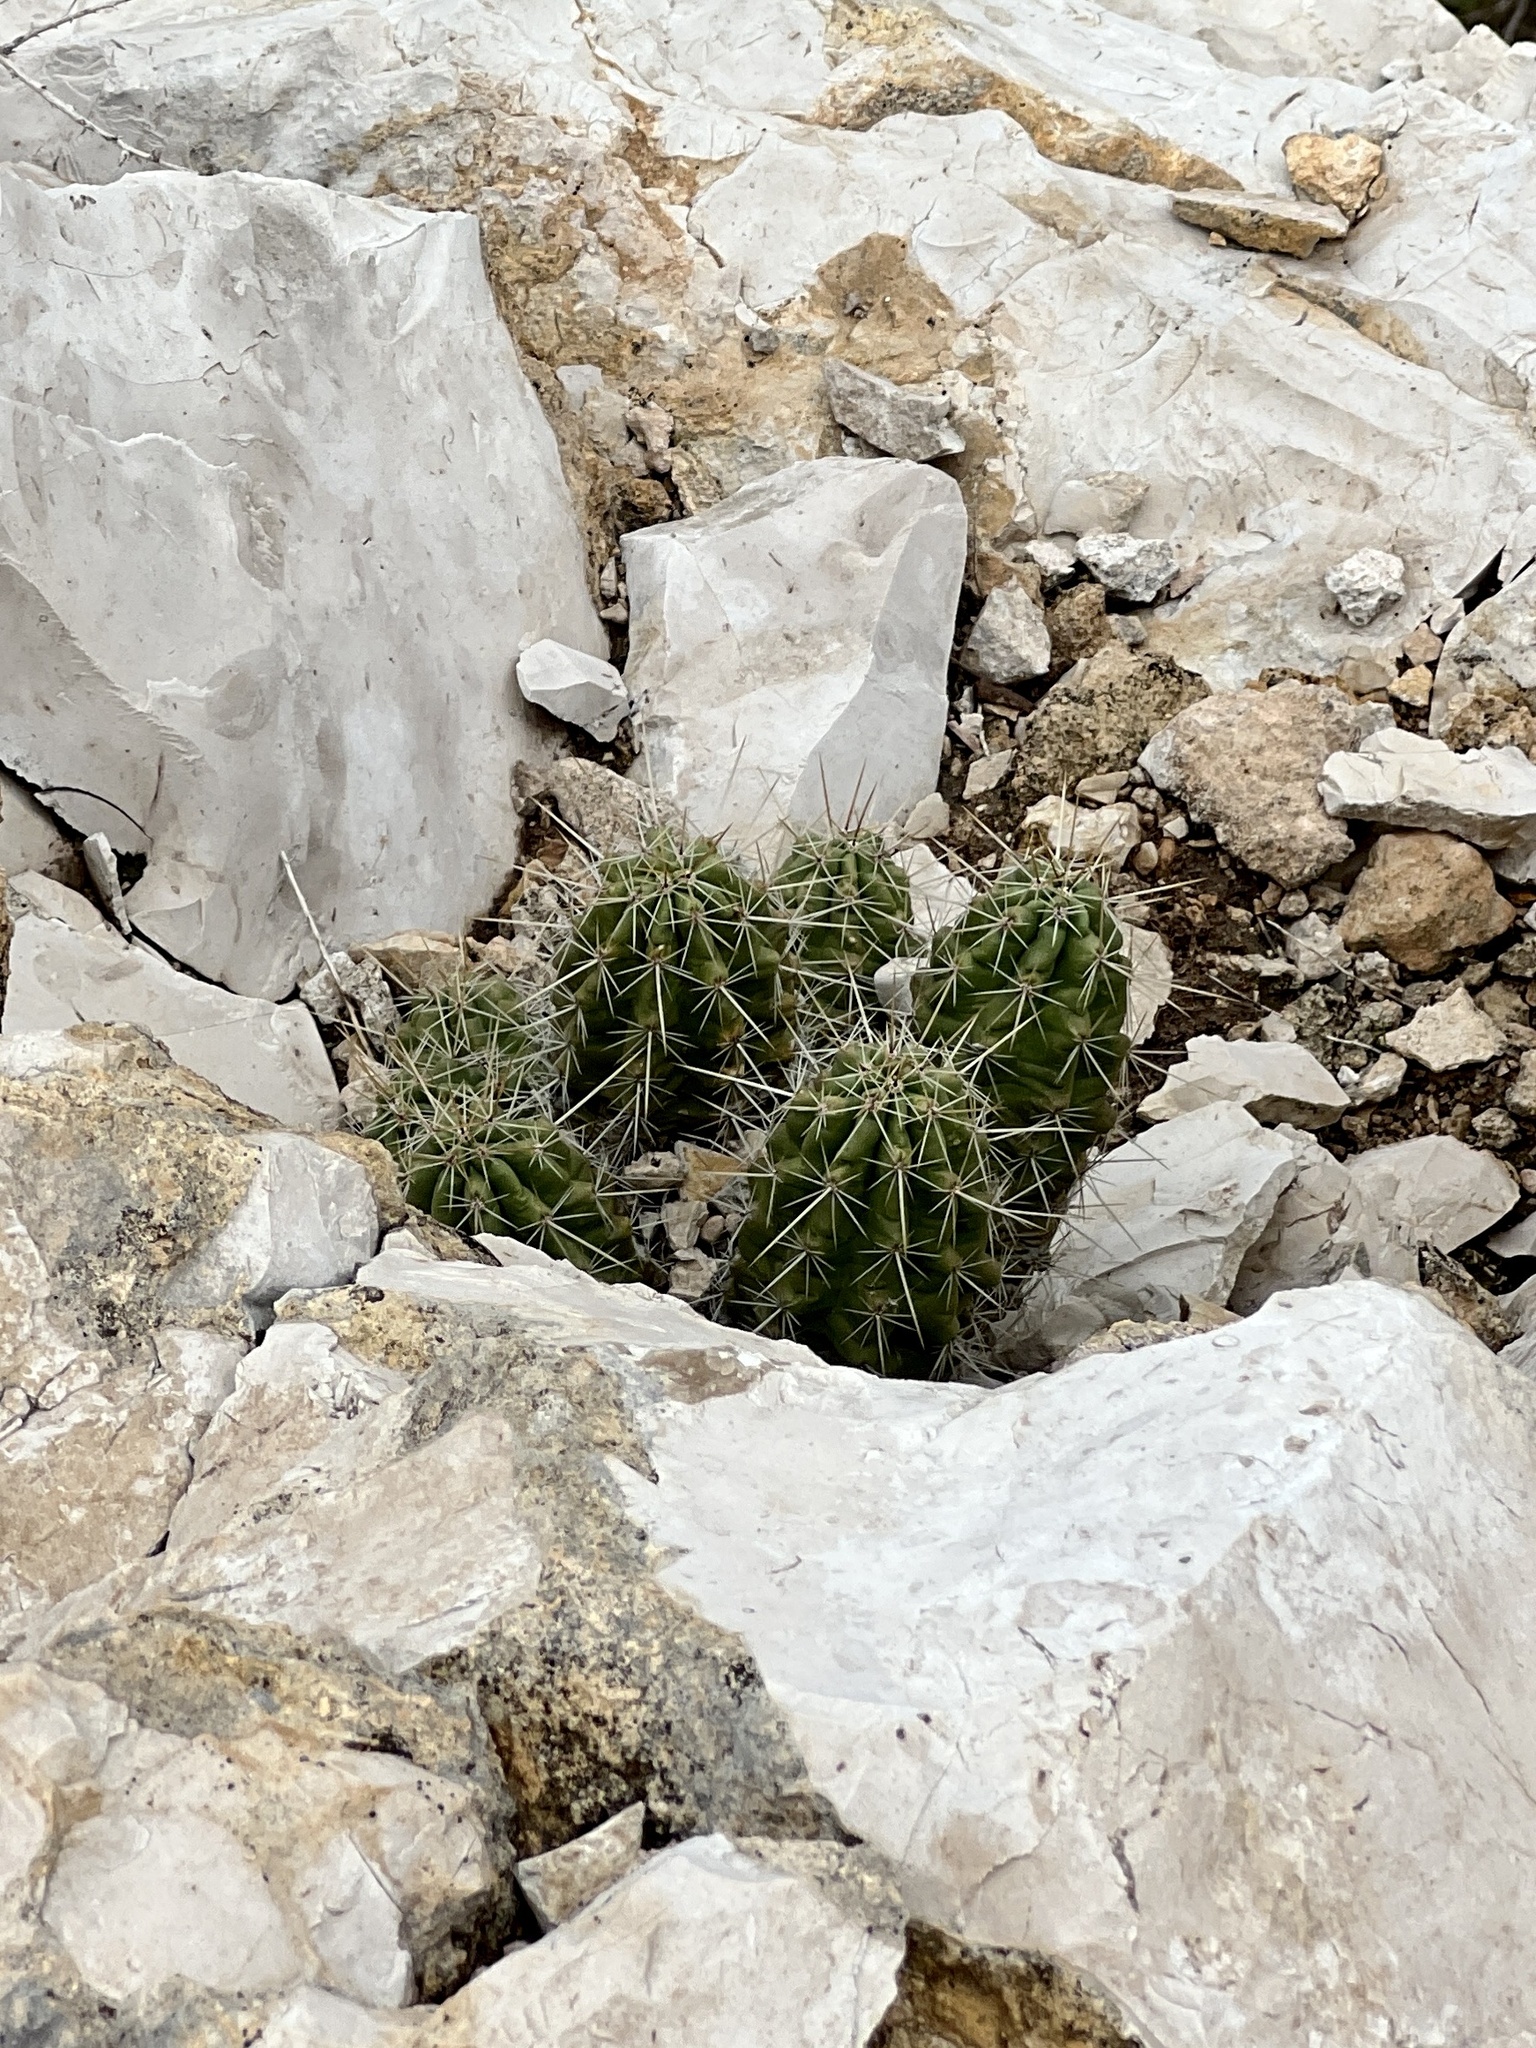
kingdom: Plantae
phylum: Tracheophyta
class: Magnoliopsida
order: Caryophyllales
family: Cactaceae
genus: Echinocereus
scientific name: Echinocereus enneacanthus
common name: Pitaya
